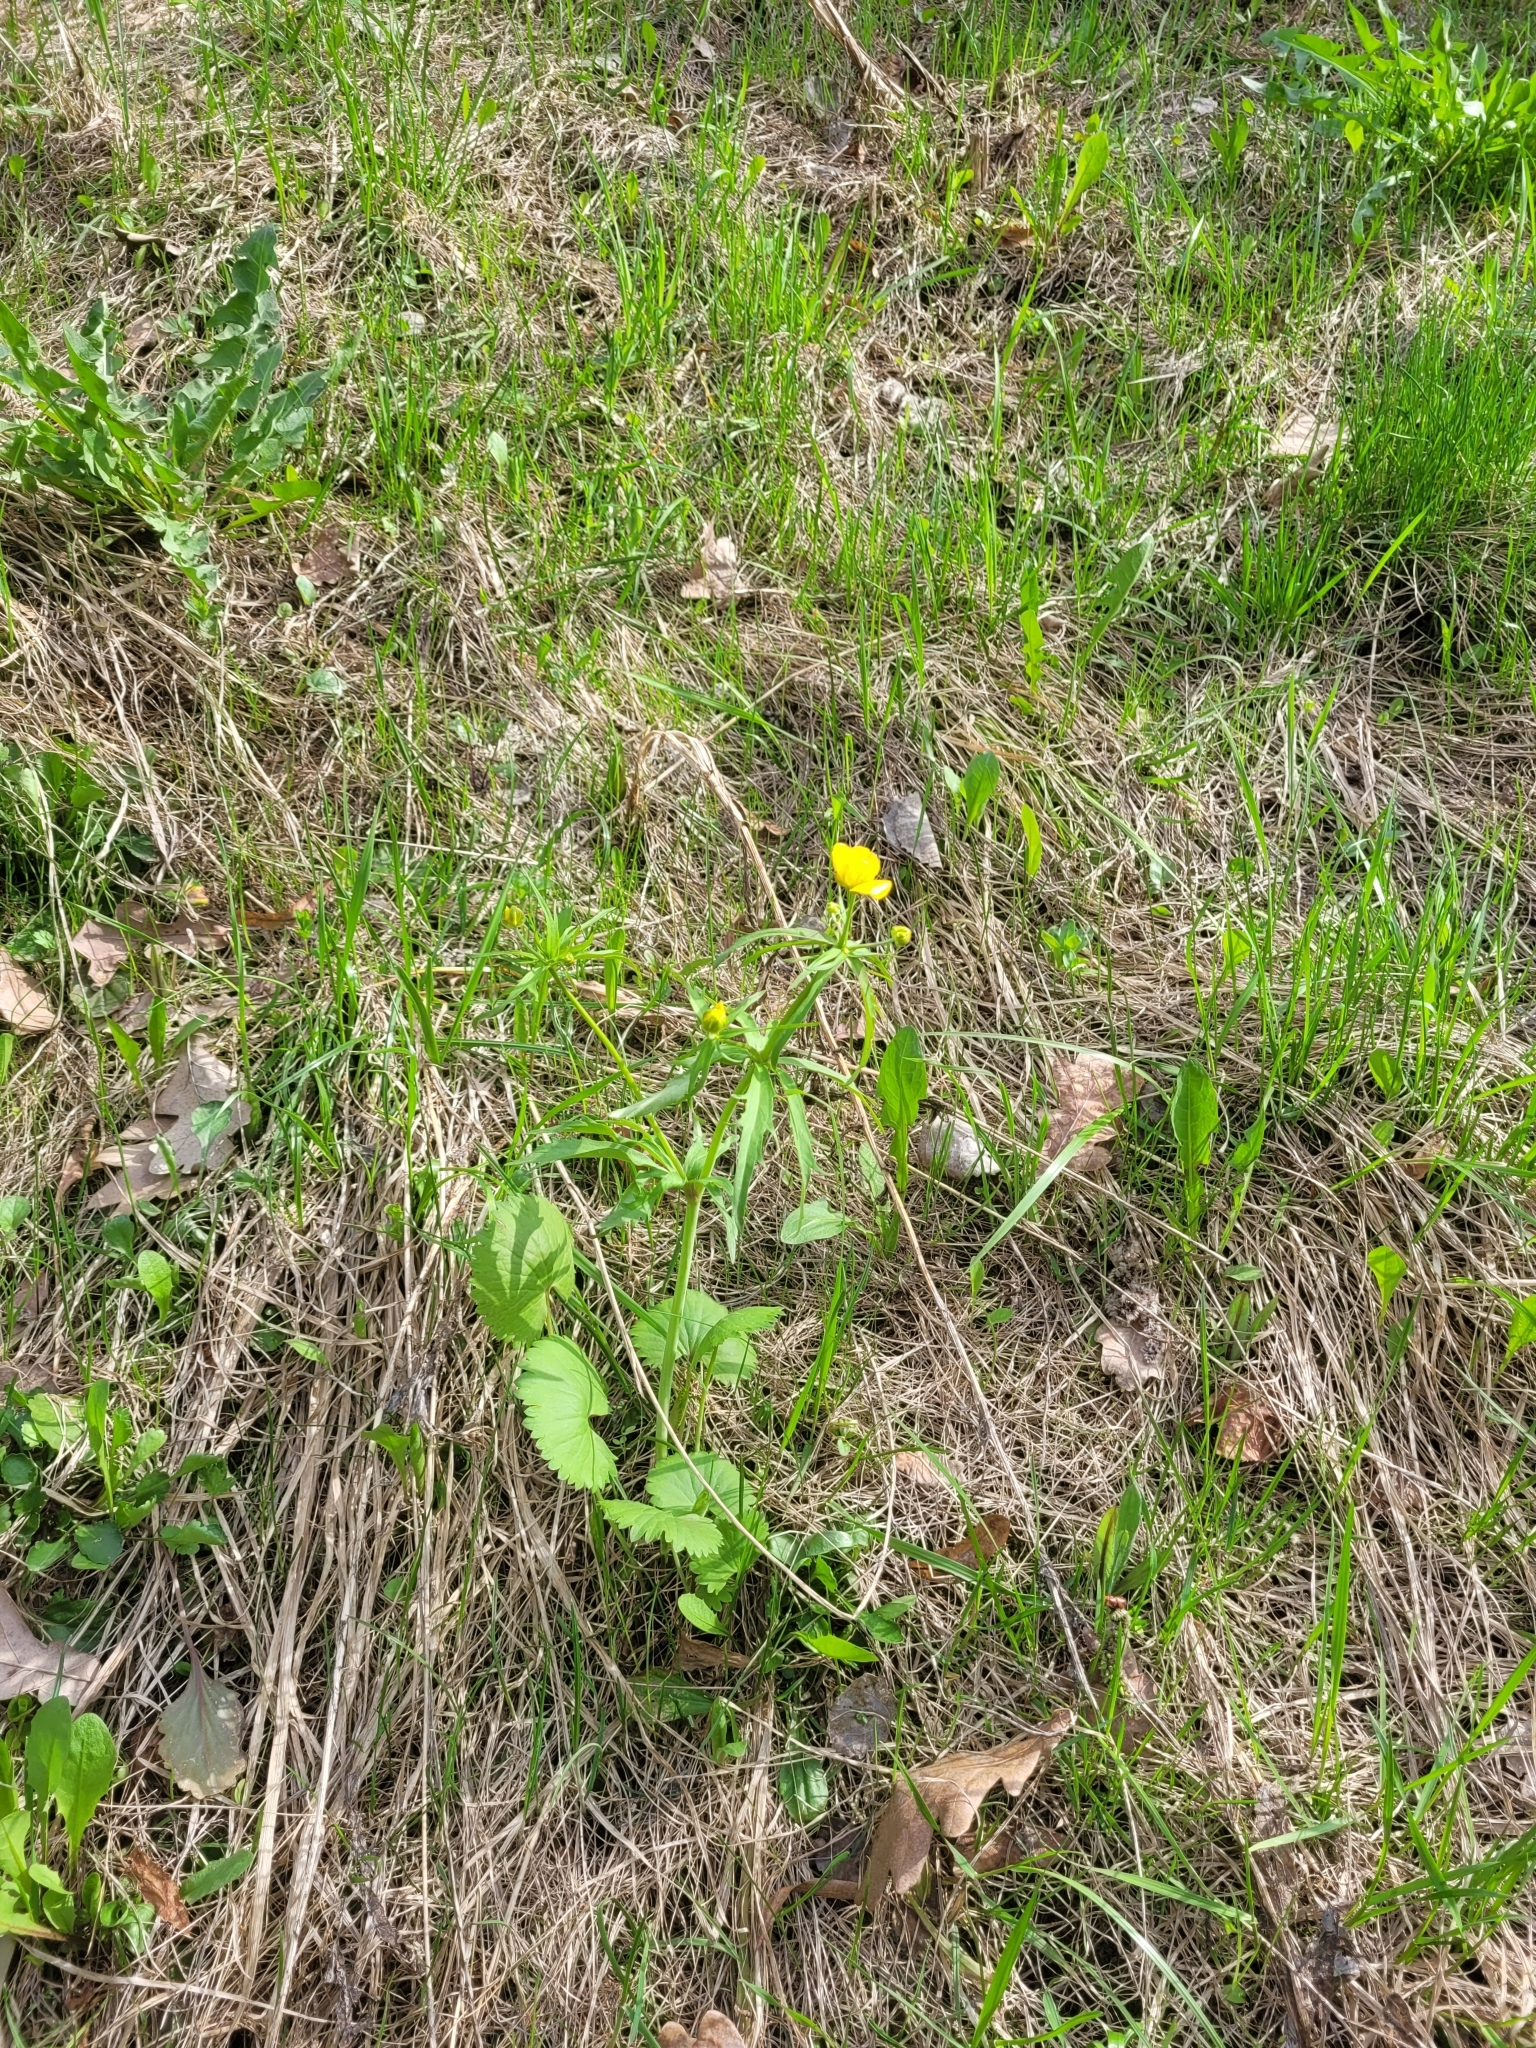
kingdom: Plantae
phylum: Tracheophyta
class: Magnoliopsida
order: Ranunculales
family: Ranunculaceae
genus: Ranunculus
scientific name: Ranunculus cassubicus
